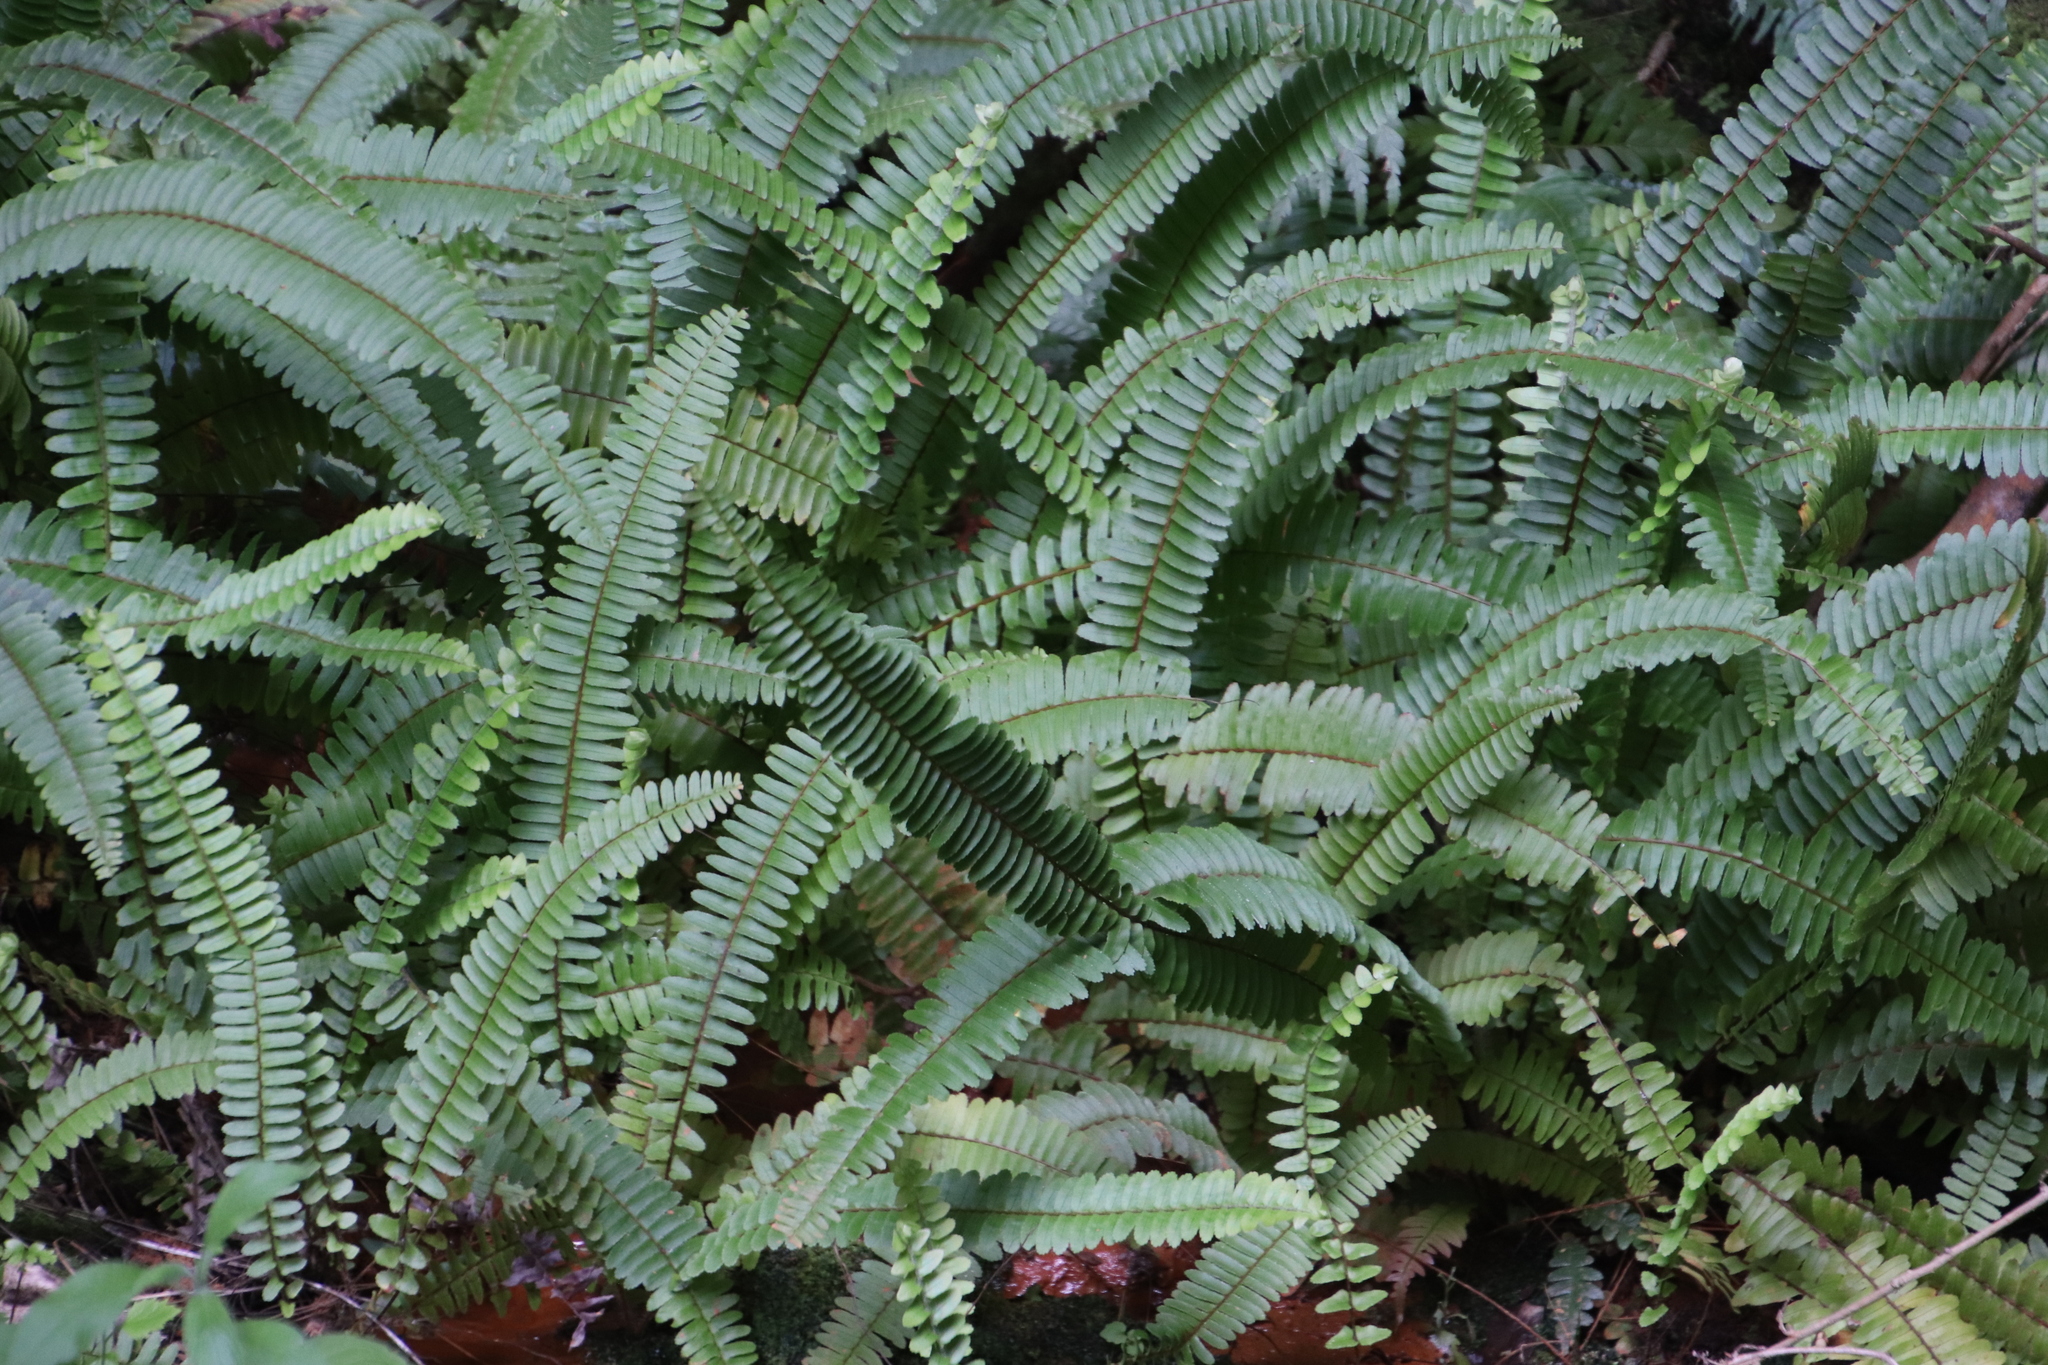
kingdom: Plantae
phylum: Tracheophyta
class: Polypodiopsida
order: Polypodiales
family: Nephrolepidaceae
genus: Nephrolepis
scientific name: Nephrolepis cordifolia
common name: Narrow swordfern
